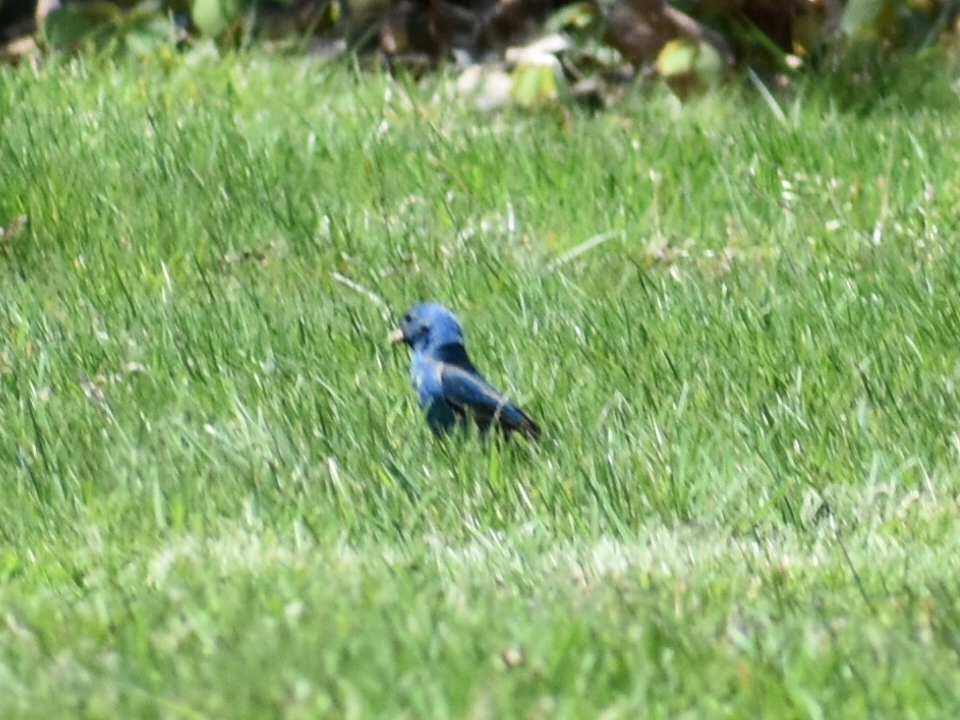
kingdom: Animalia
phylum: Chordata
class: Aves
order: Passeriformes
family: Cardinalidae
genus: Passerina
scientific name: Passerina cyanea
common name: Indigo bunting
